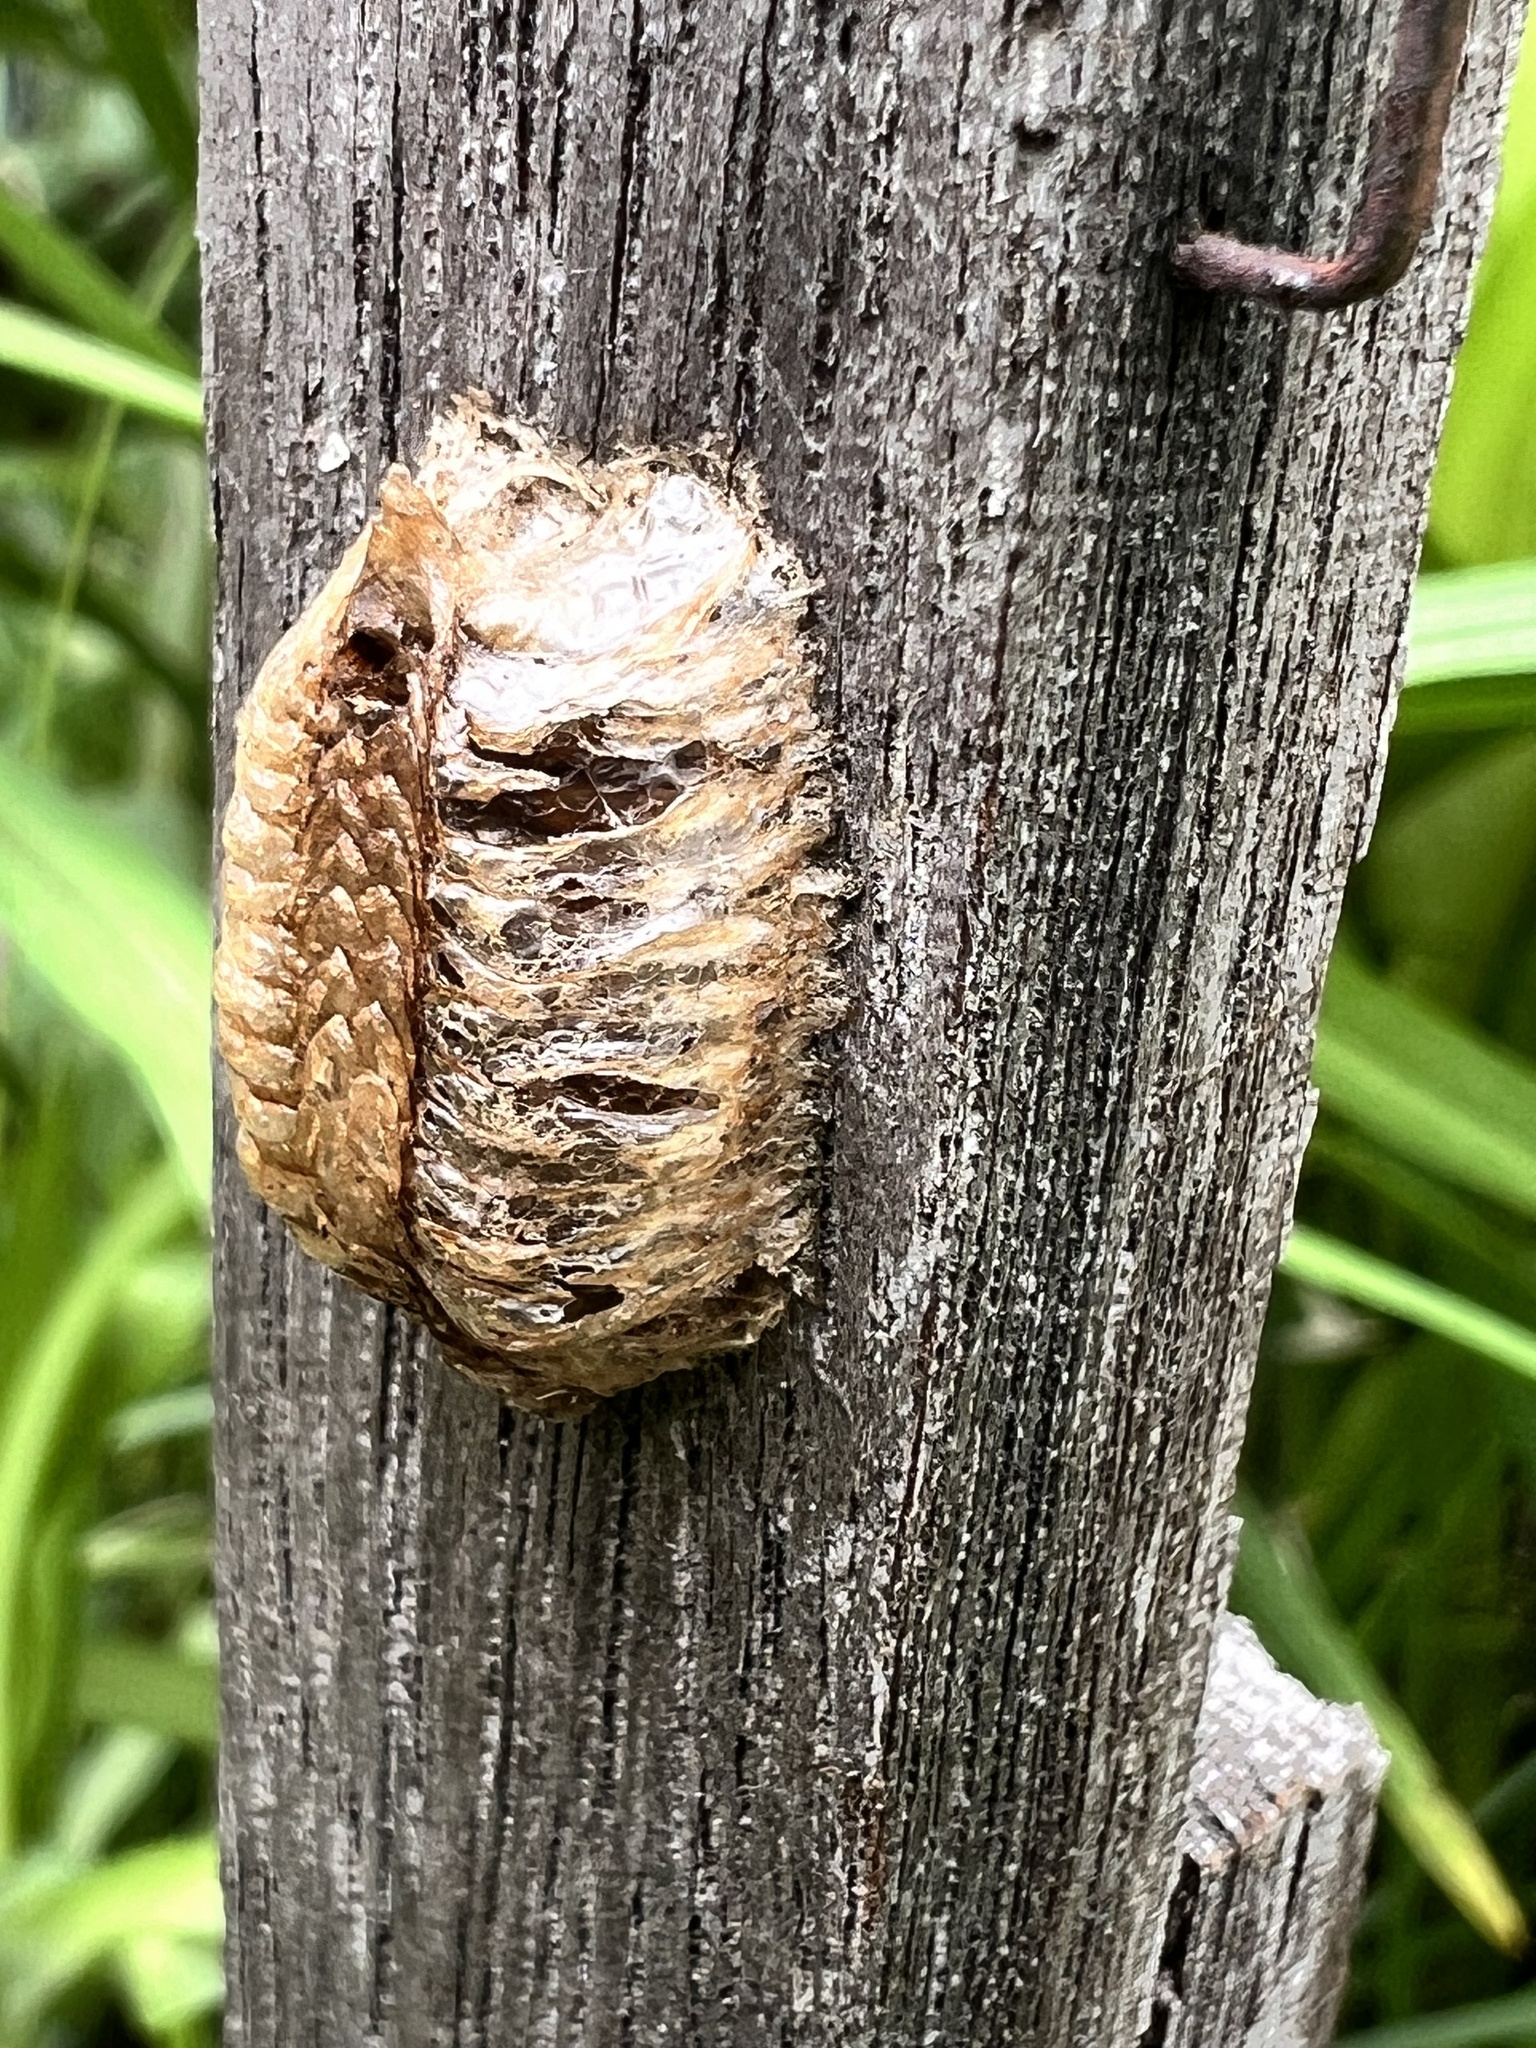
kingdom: Animalia
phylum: Arthropoda
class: Insecta
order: Mantodea
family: Mantidae
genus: Pseudomantis
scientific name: Pseudomantis albofimbriata
